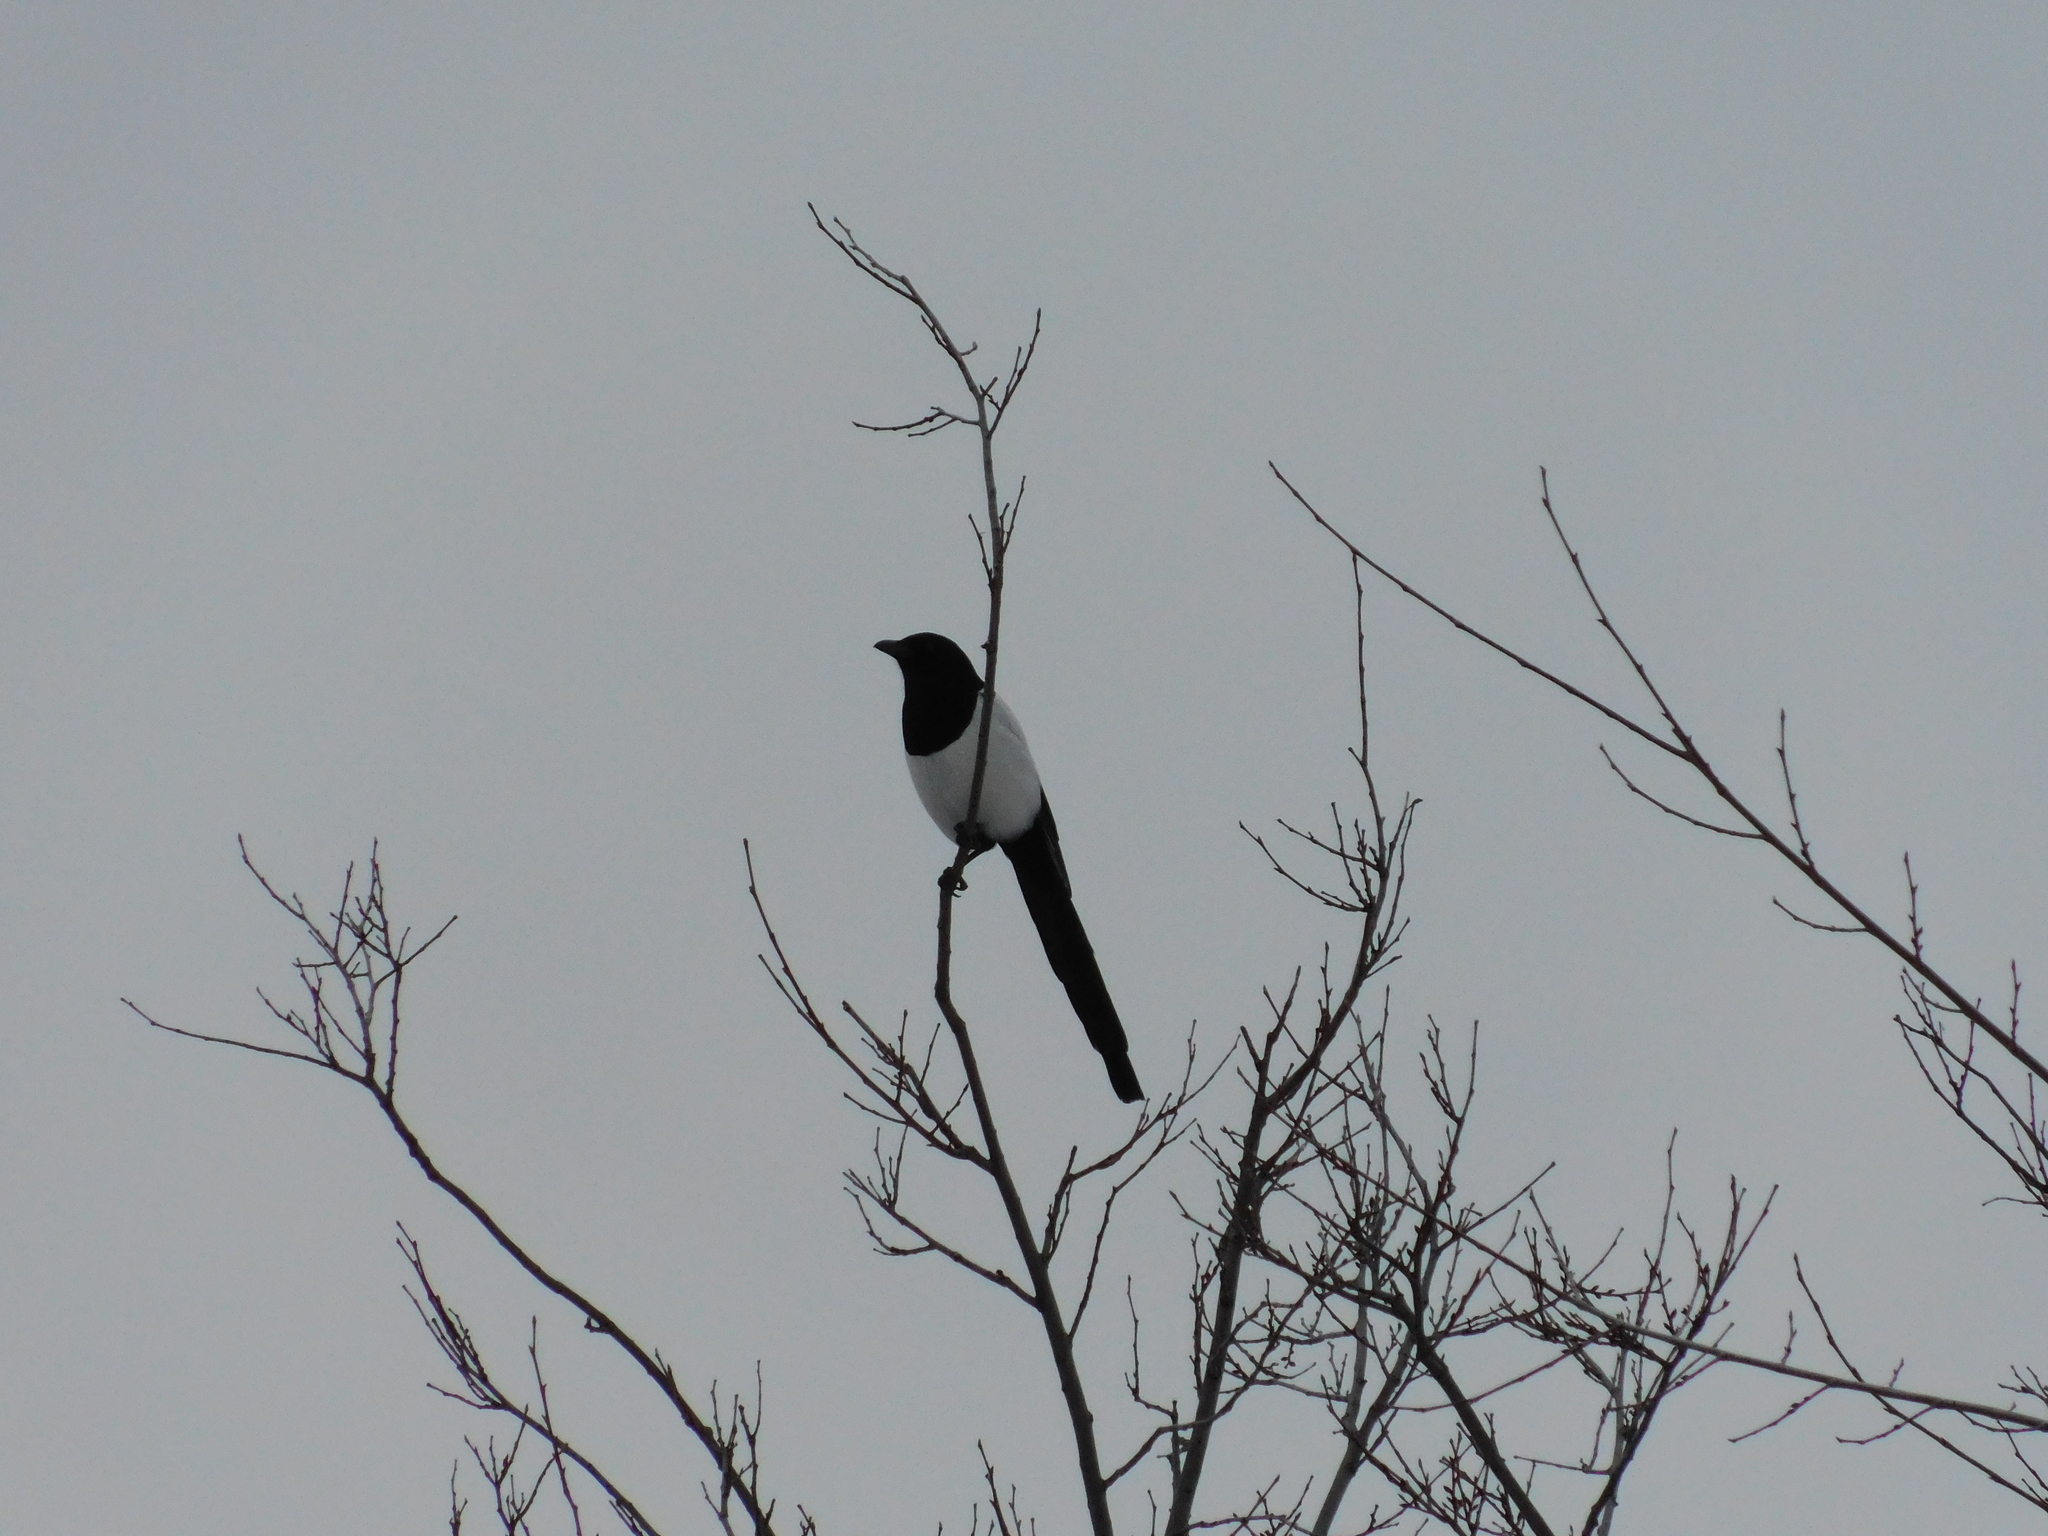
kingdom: Animalia
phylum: Chordata
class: Aves
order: Passeriformes
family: Corvidae
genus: Pica
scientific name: Pica pica
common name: Eurasian magpie
